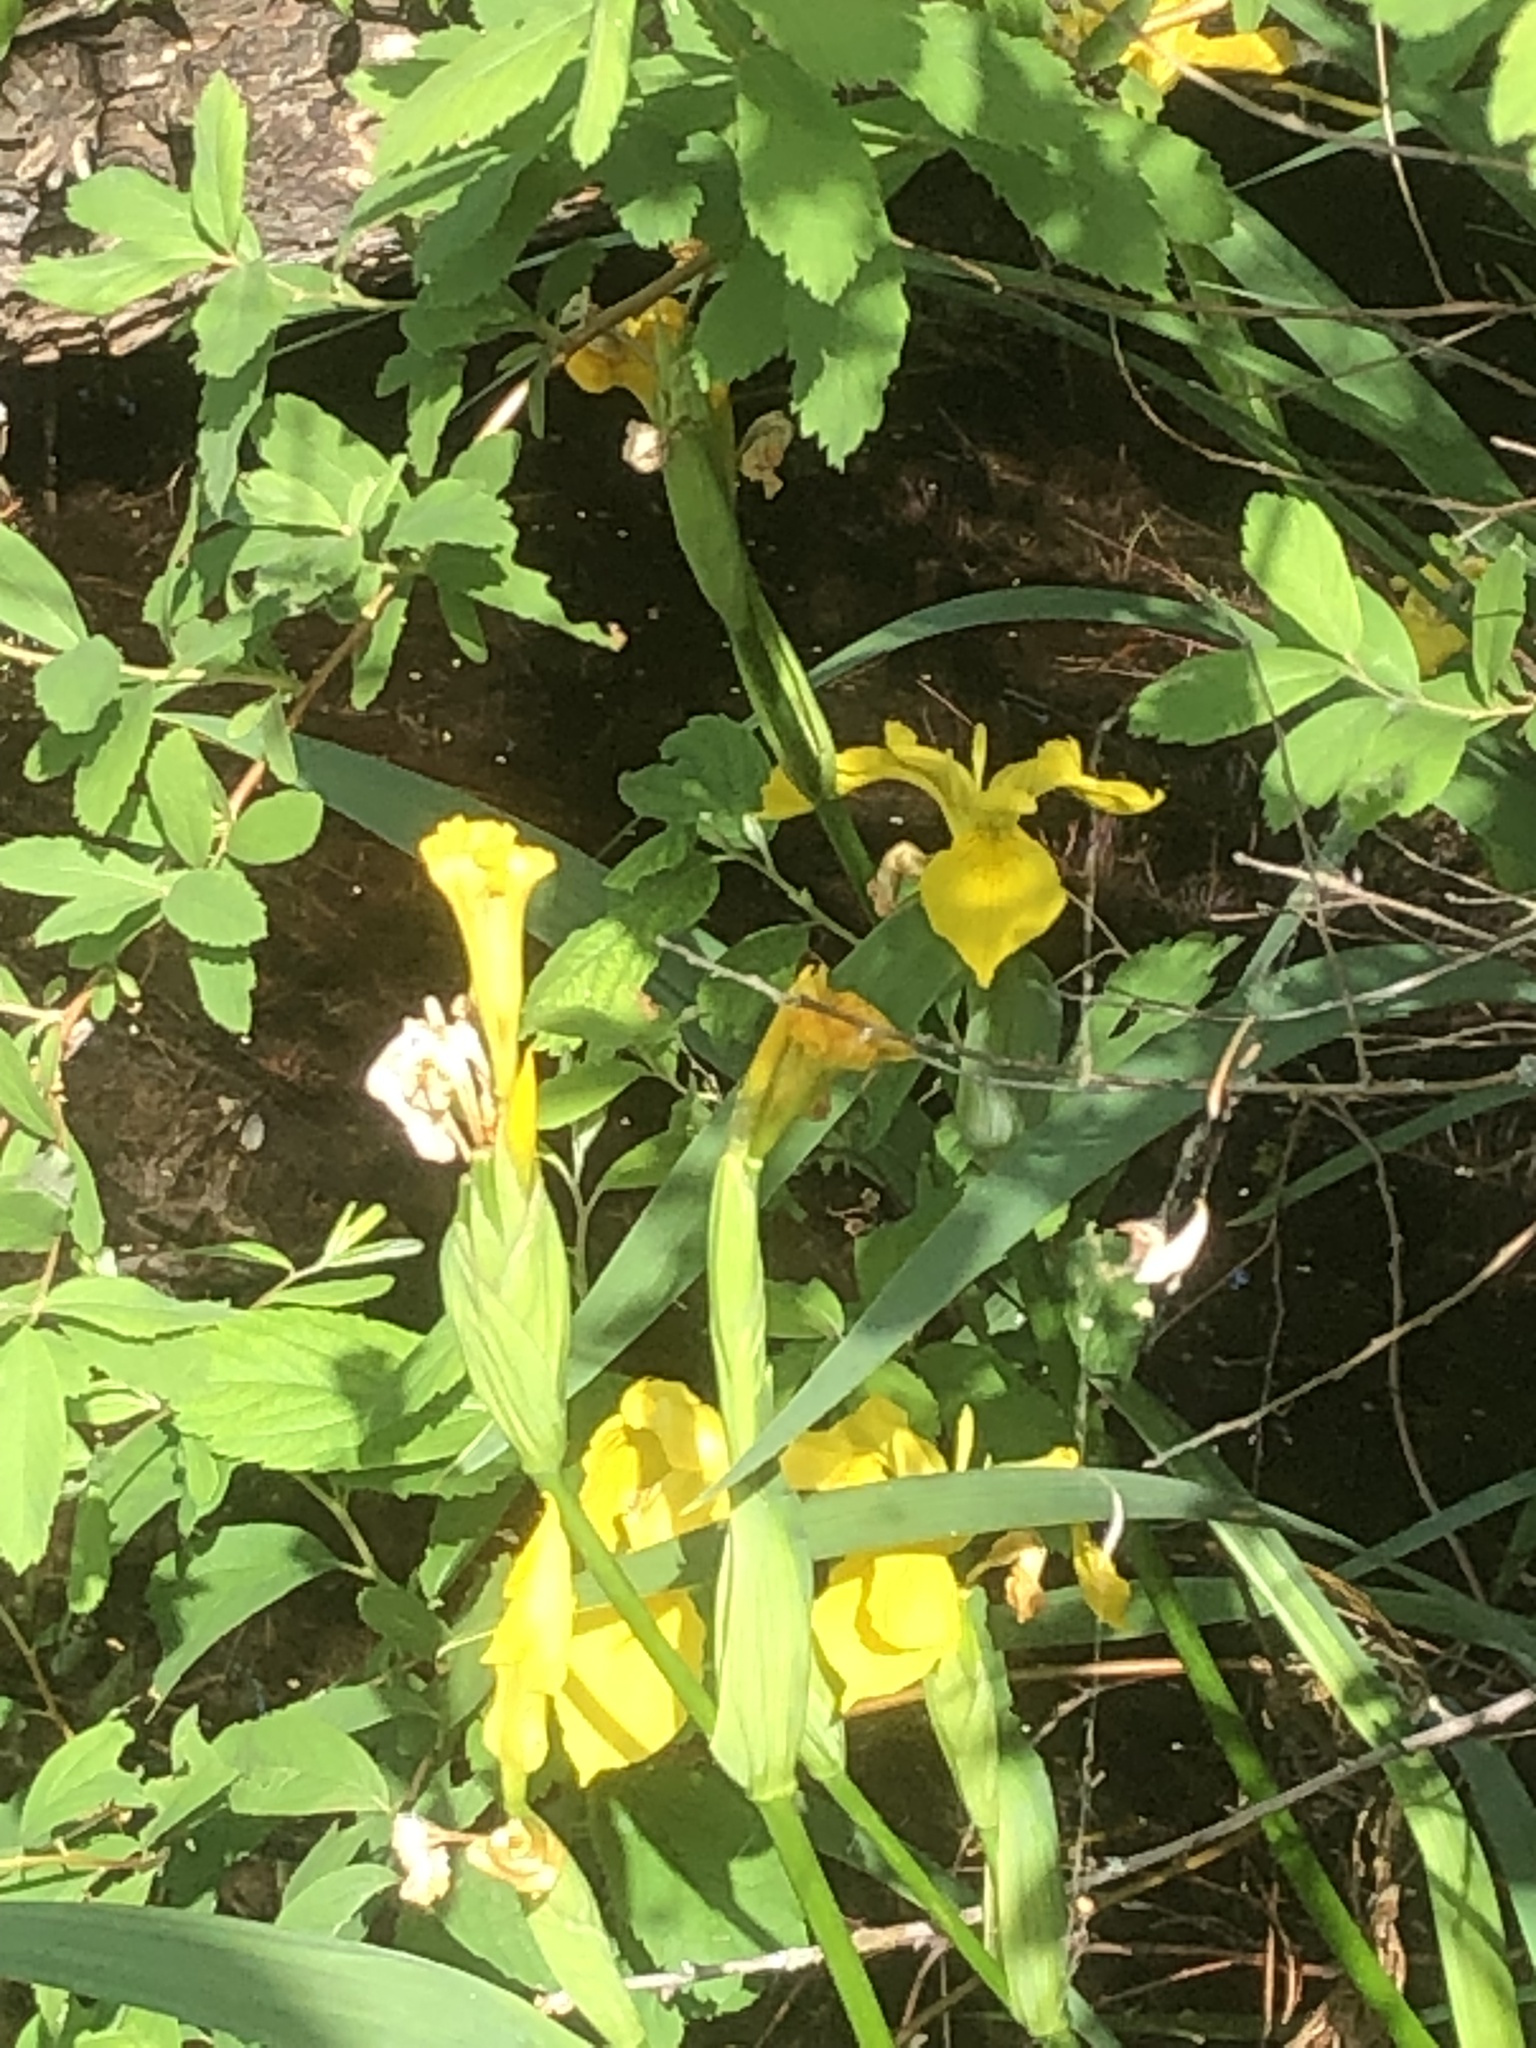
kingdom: Plantae
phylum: Tracheophyta
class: Liliopsida
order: Asparagales
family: Iridaceae
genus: Iris
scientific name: Iris pseudacorus
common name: Yellow flag
